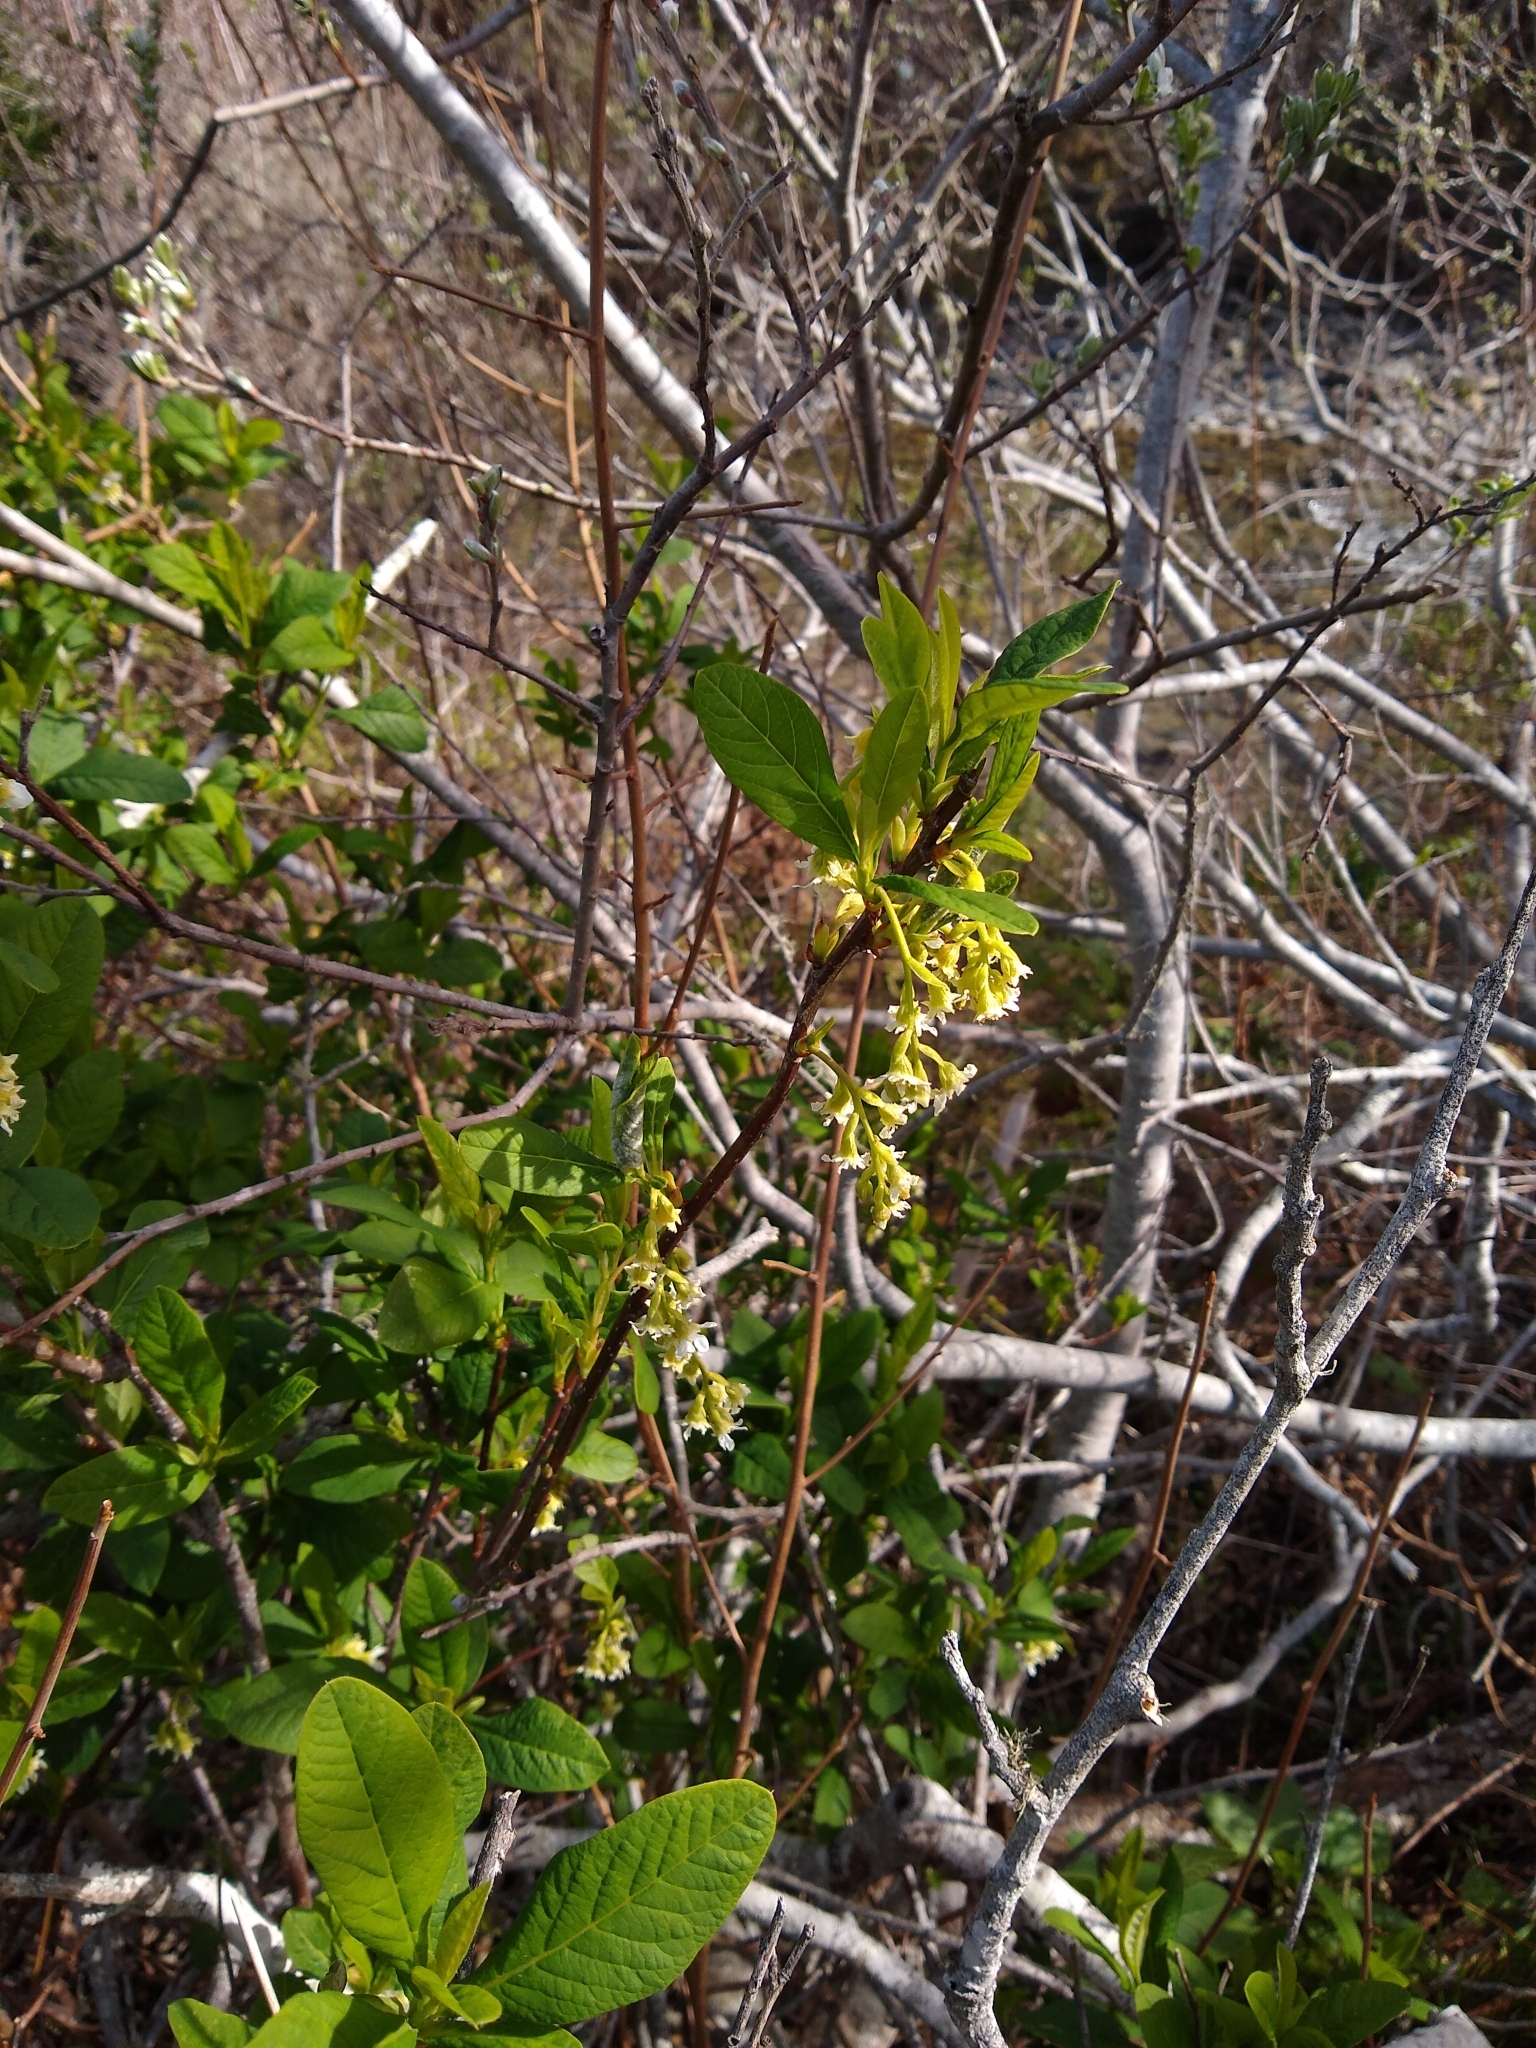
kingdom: Plantae
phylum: Tracheophyta
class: Magnoliopsida
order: Rosales
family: Rosaceae
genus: Oemleria
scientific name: Oemleria cerasiformis
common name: Osoberry
